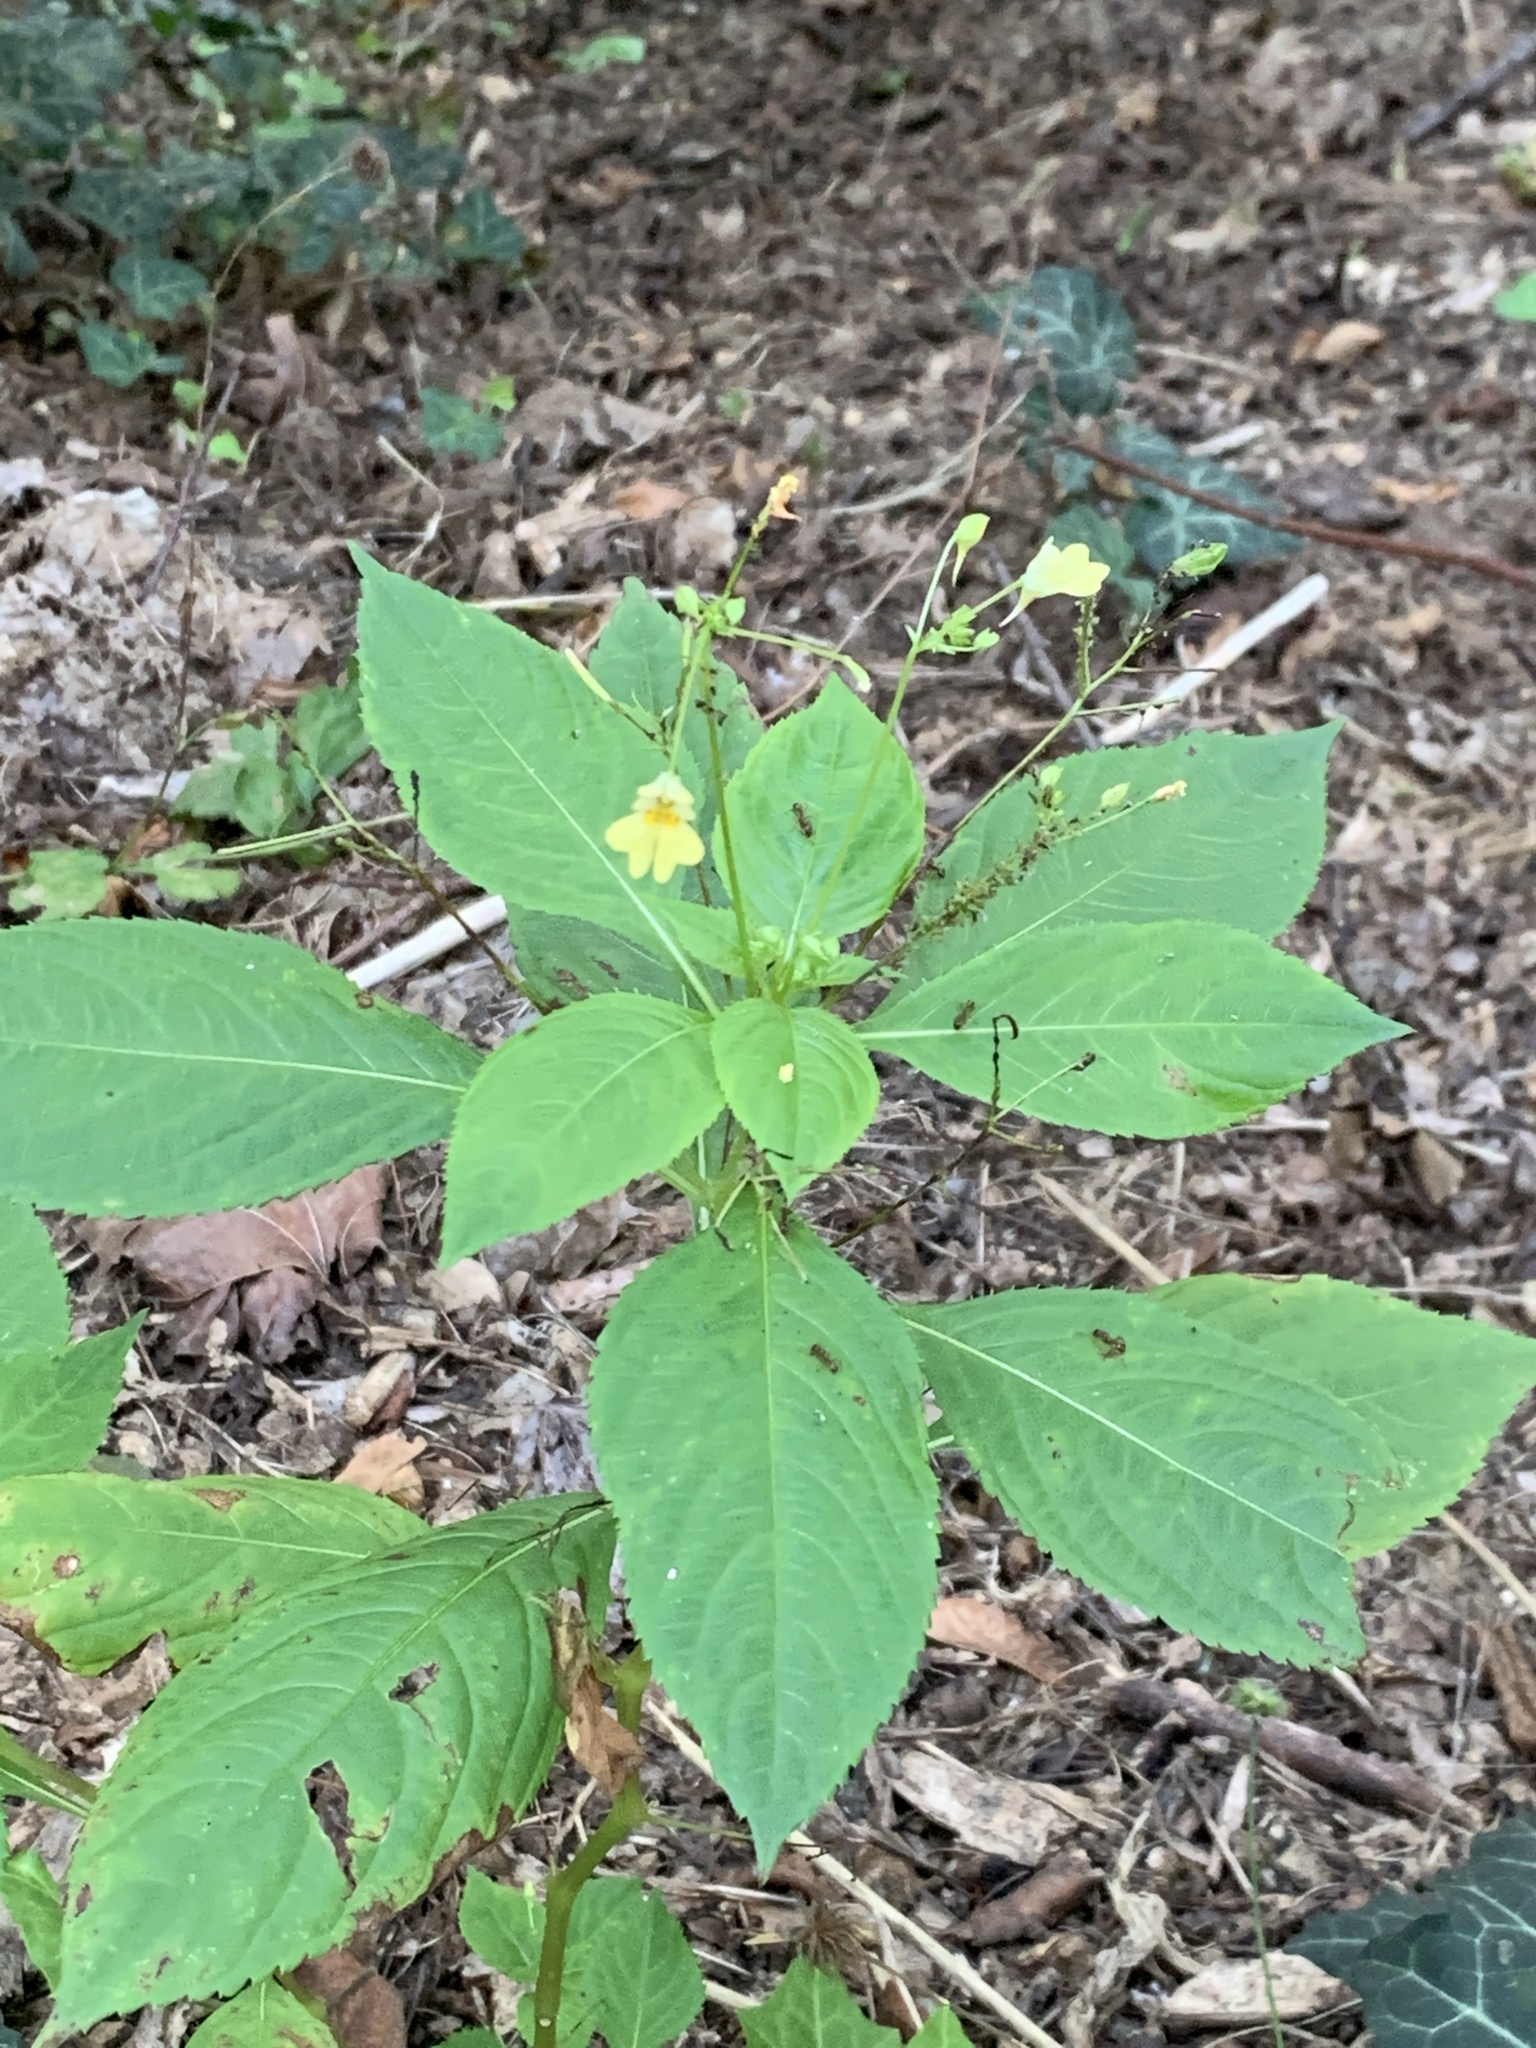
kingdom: Plantae
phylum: Tracheophyta
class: Magnoliopsida
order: Ericales
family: Balsaminaceae
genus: Impatiens
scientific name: Impatiens parviflora
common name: Small balsam
